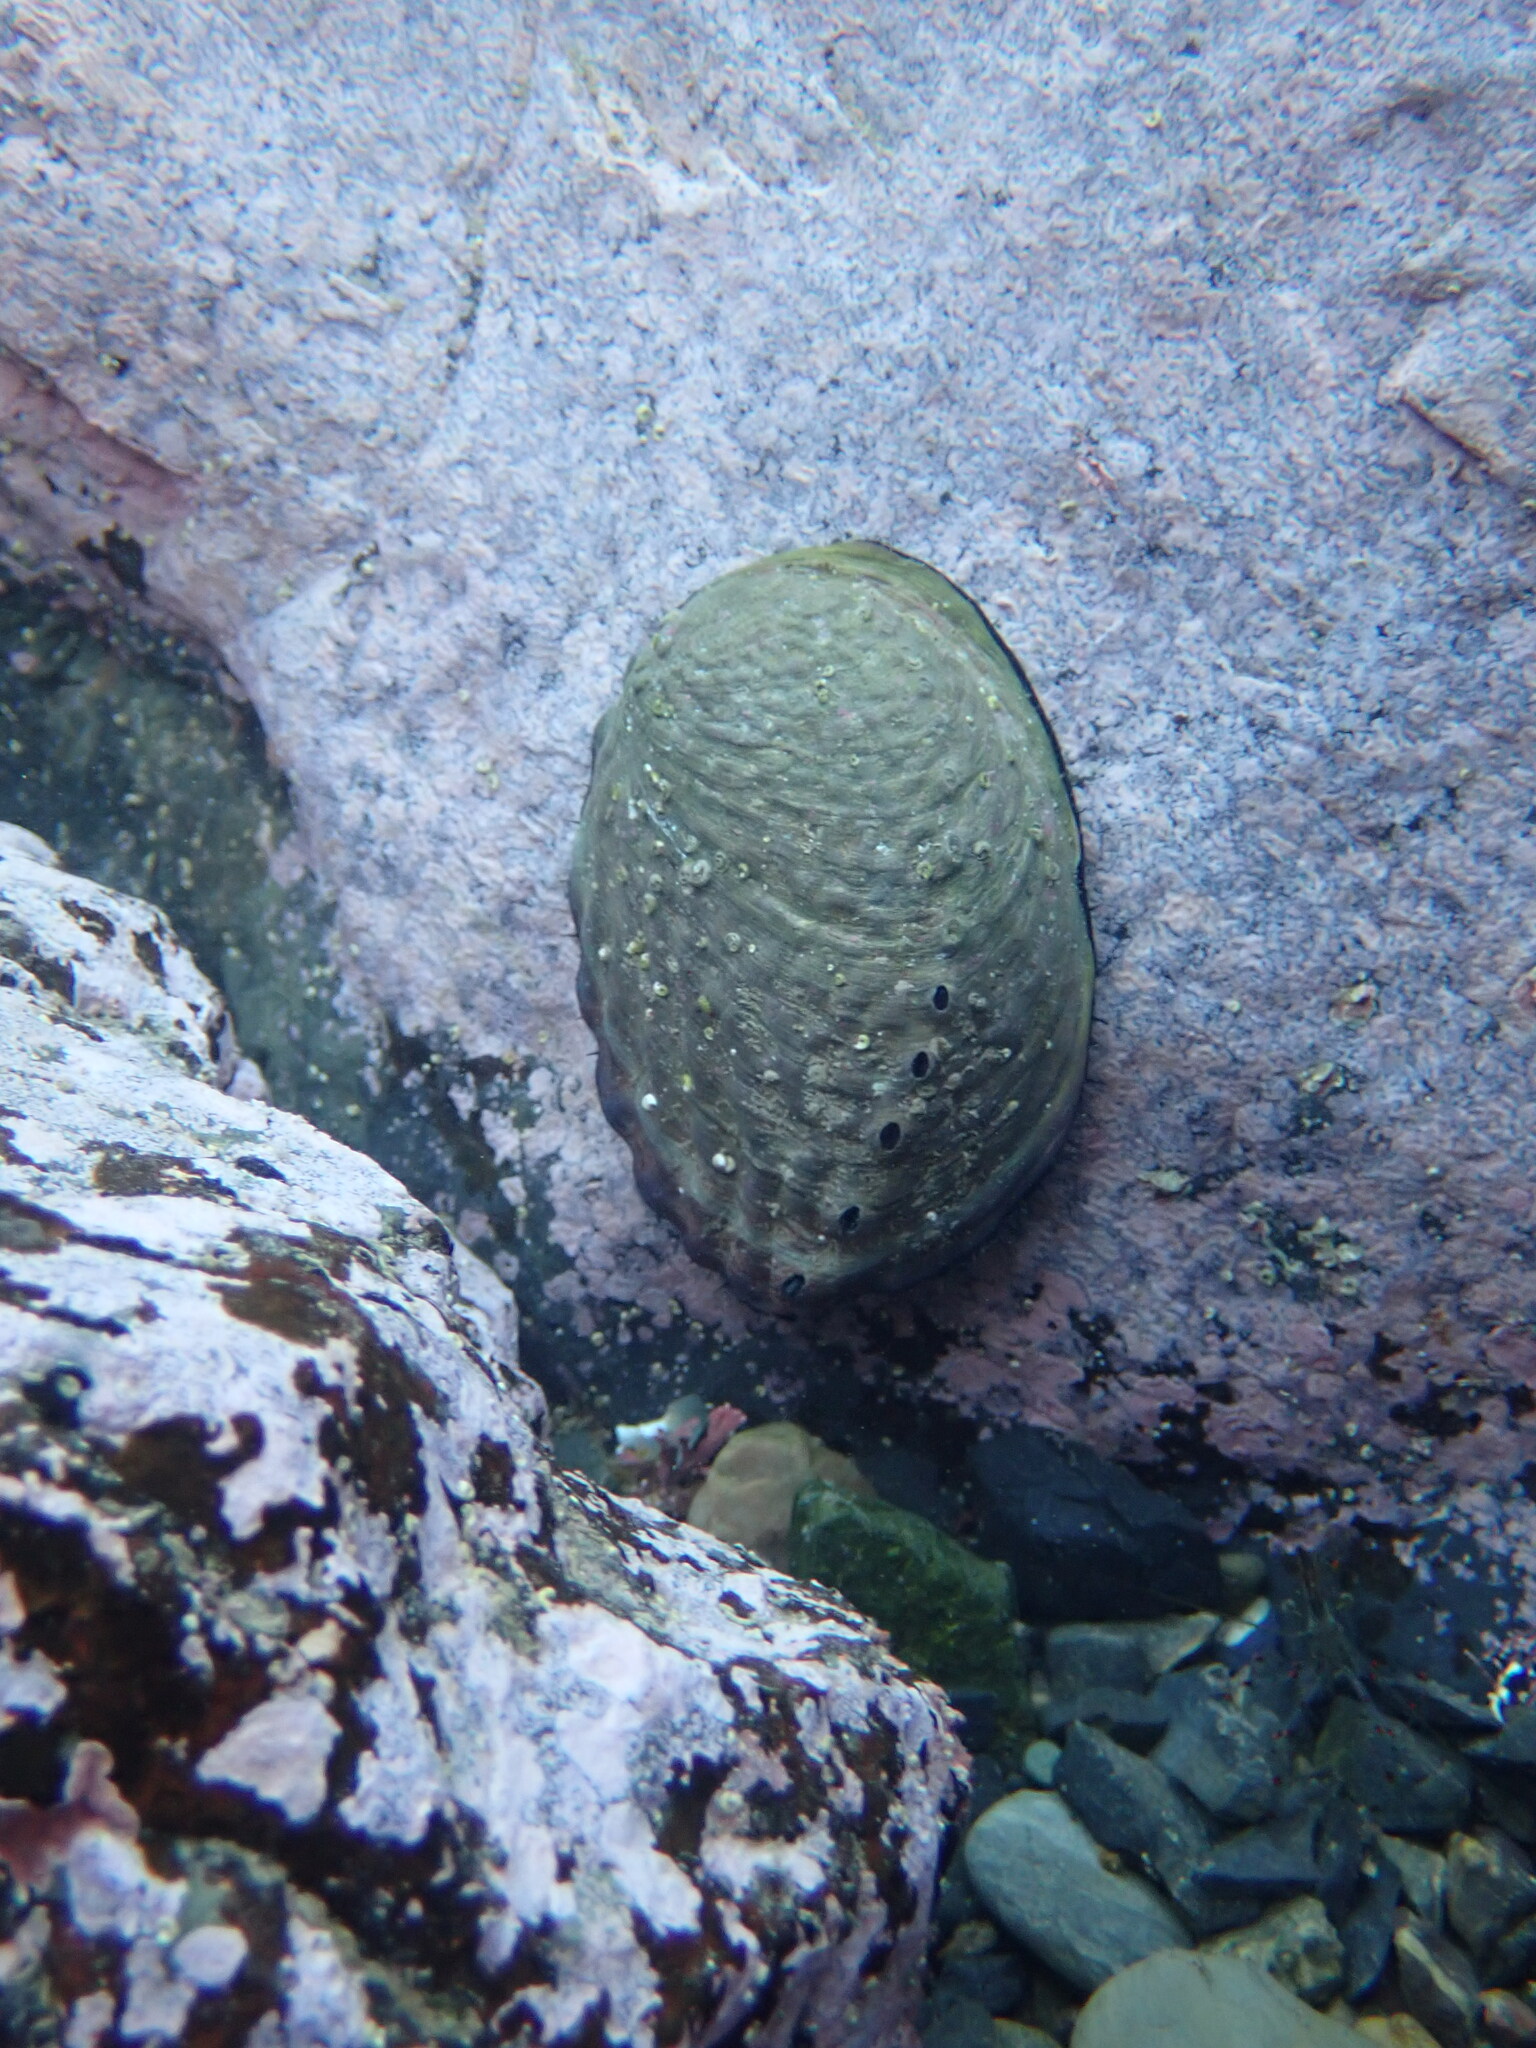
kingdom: Animalia
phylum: Mollusca
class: Gastropoda
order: Lepetellida
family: Haliotidae
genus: Haliotis
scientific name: Haliotis iris
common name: Abalone
